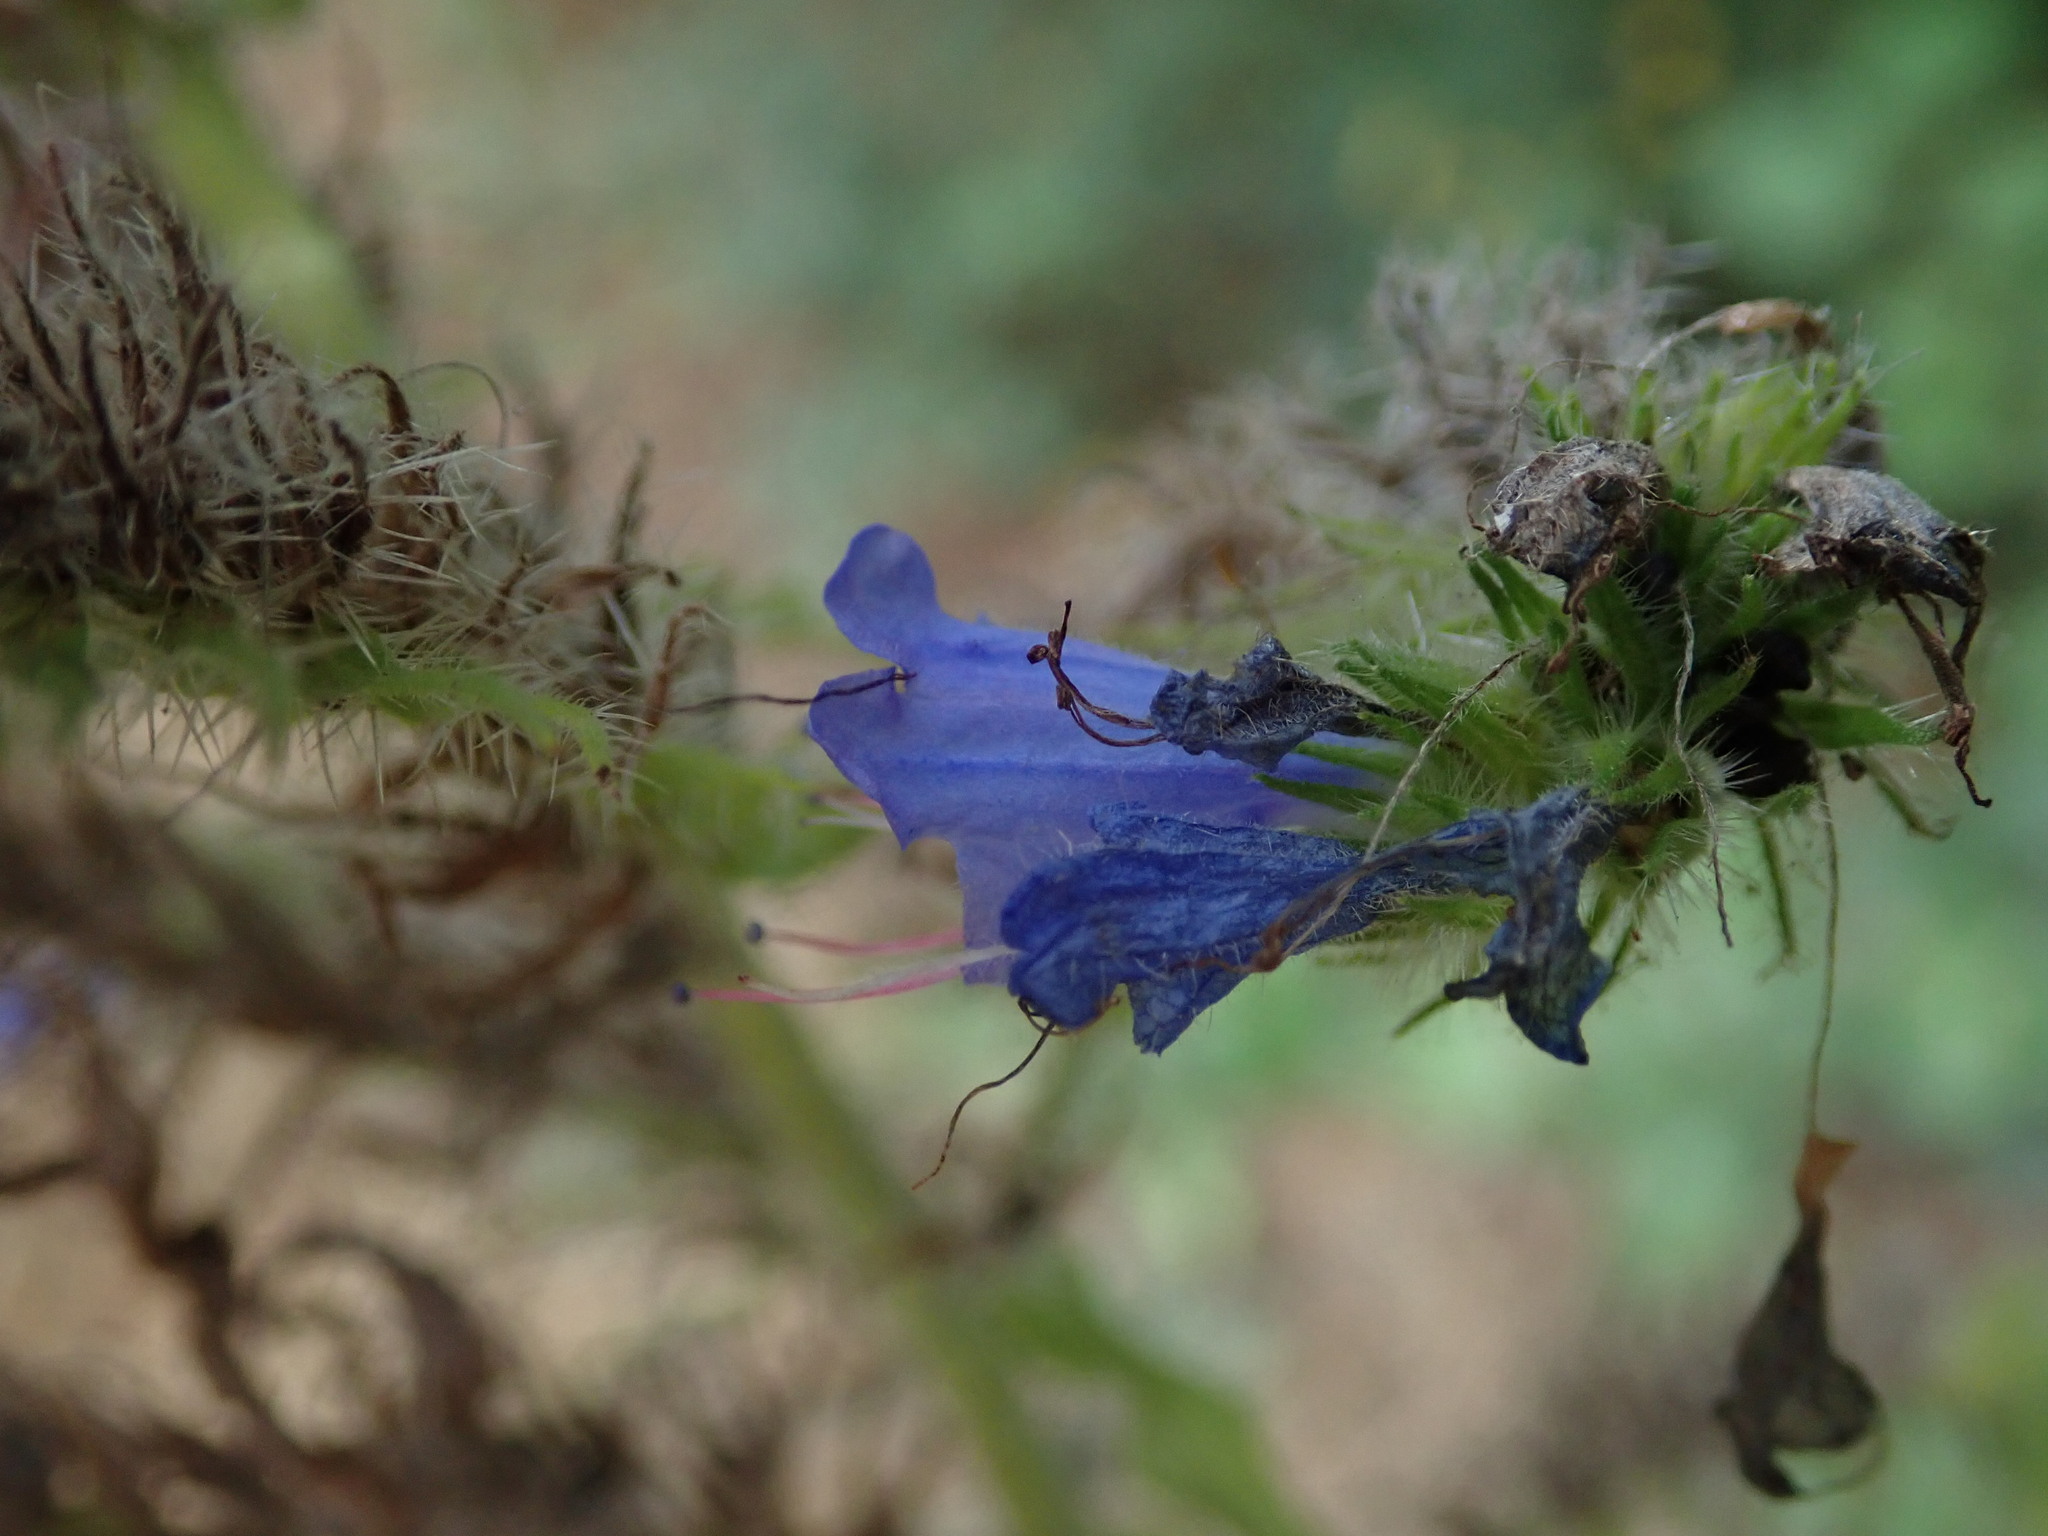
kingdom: Plantae
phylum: Tracheophyta
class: Magnoliopsida
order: Boraginales
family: Boraginaceae
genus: Echium
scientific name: Echium vulgare
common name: Common viper's bugloss
